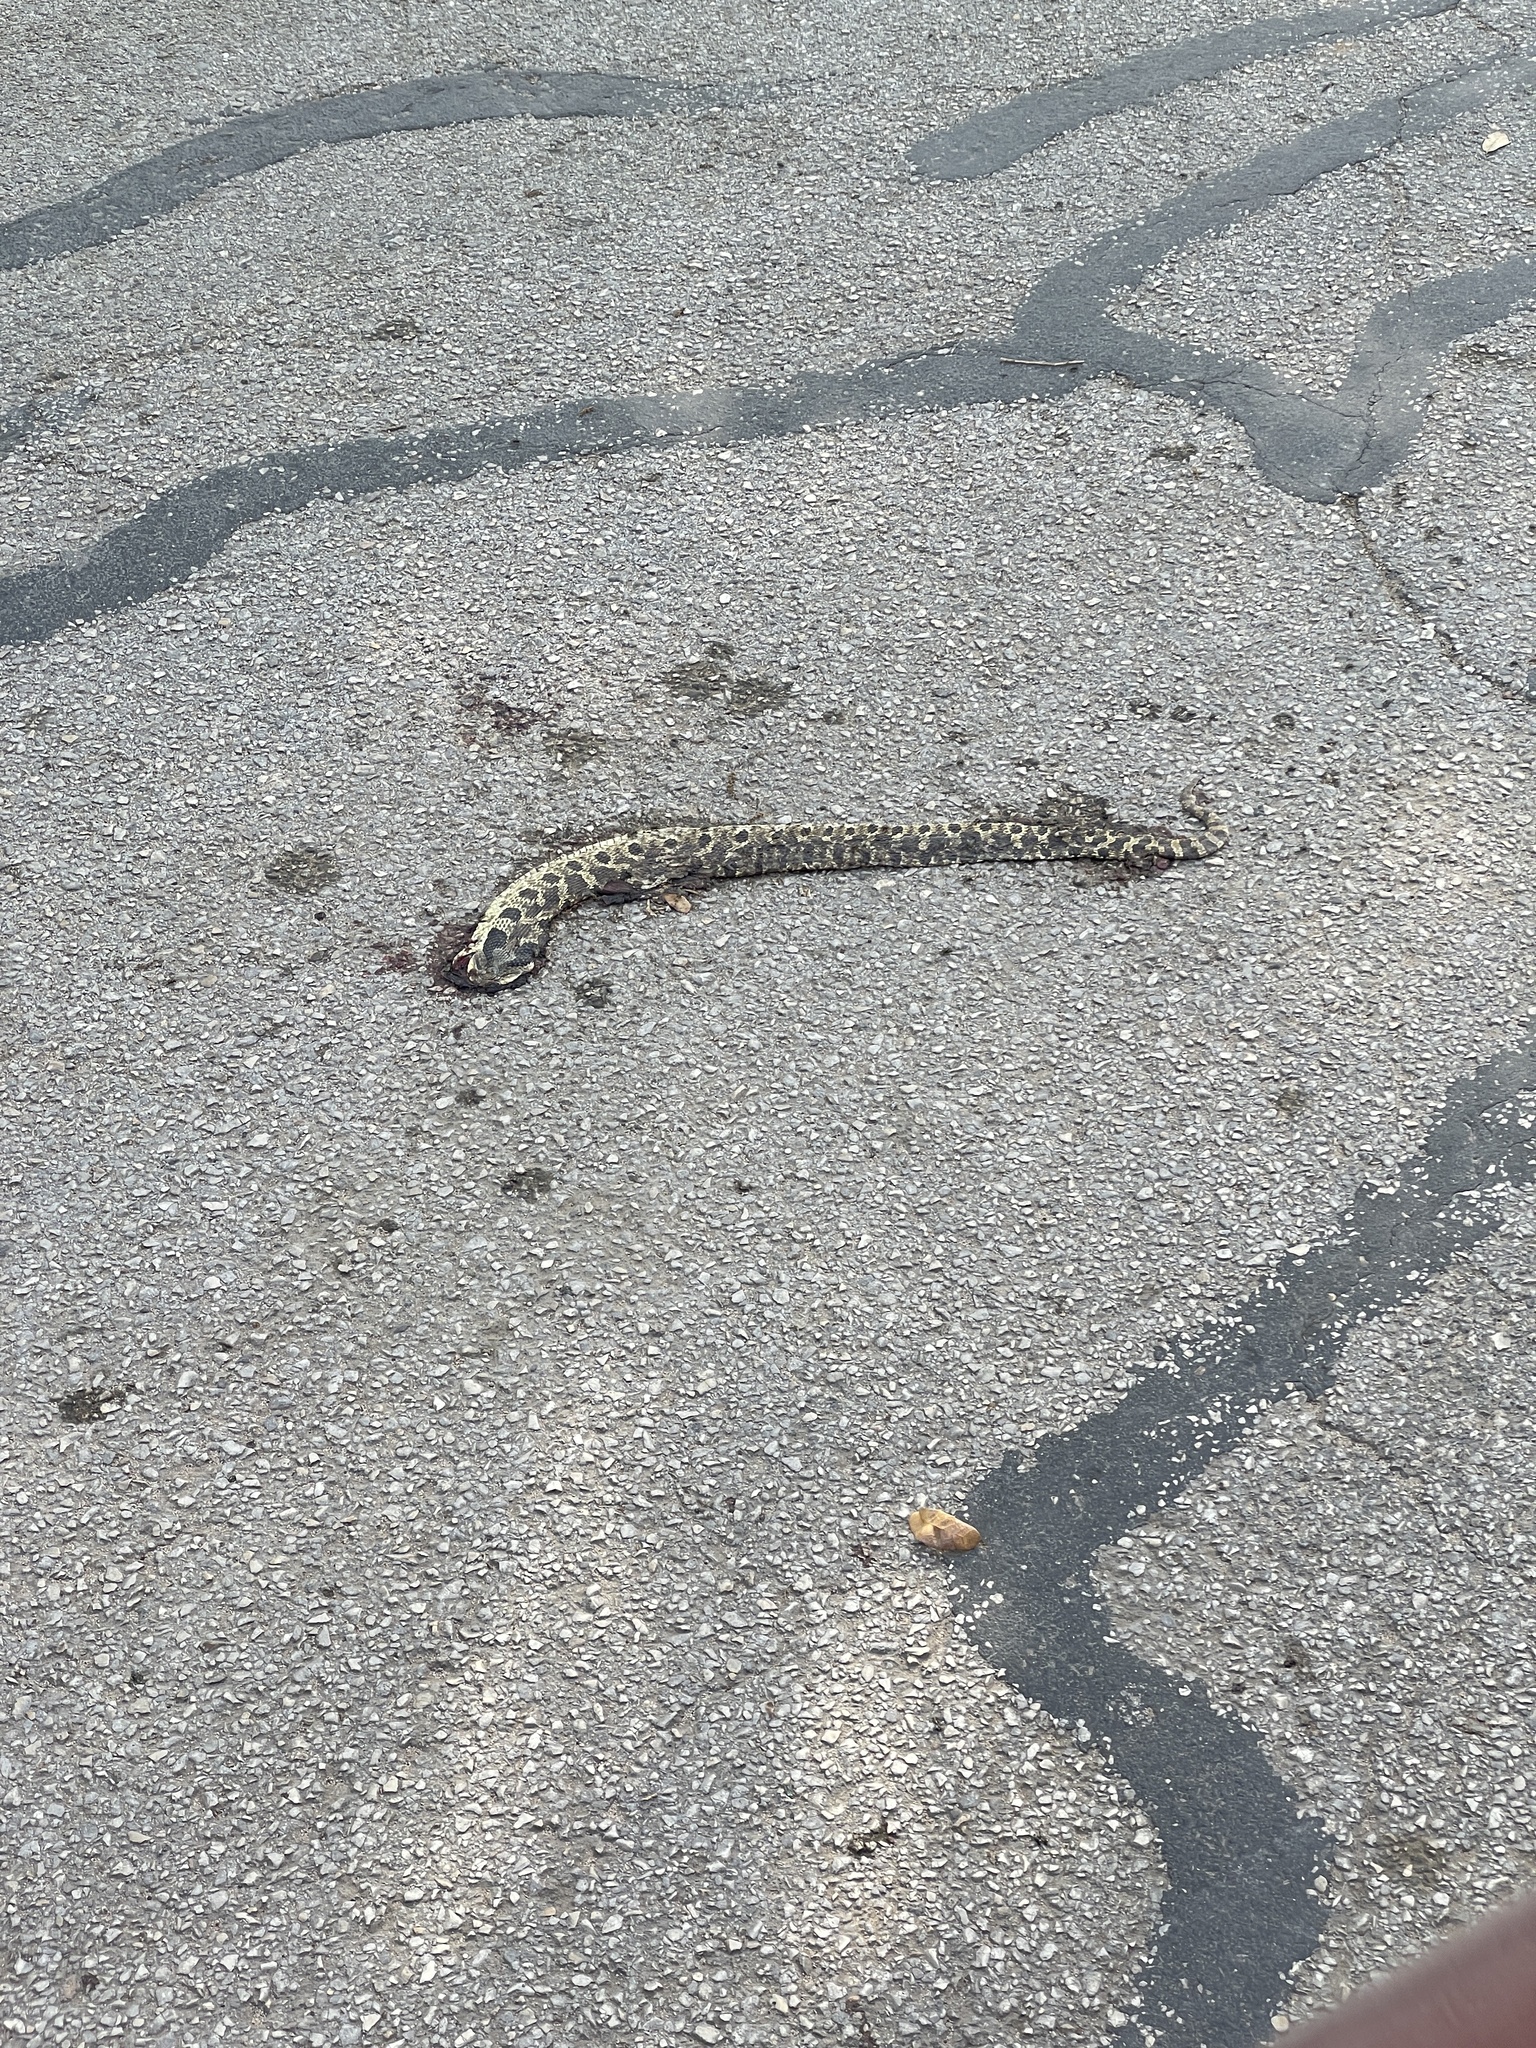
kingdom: Animalia
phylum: Chordata
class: Squamata
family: Colubridae
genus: Heterodon
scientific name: Heterodon platirhinos
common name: Eastern hognose snake
